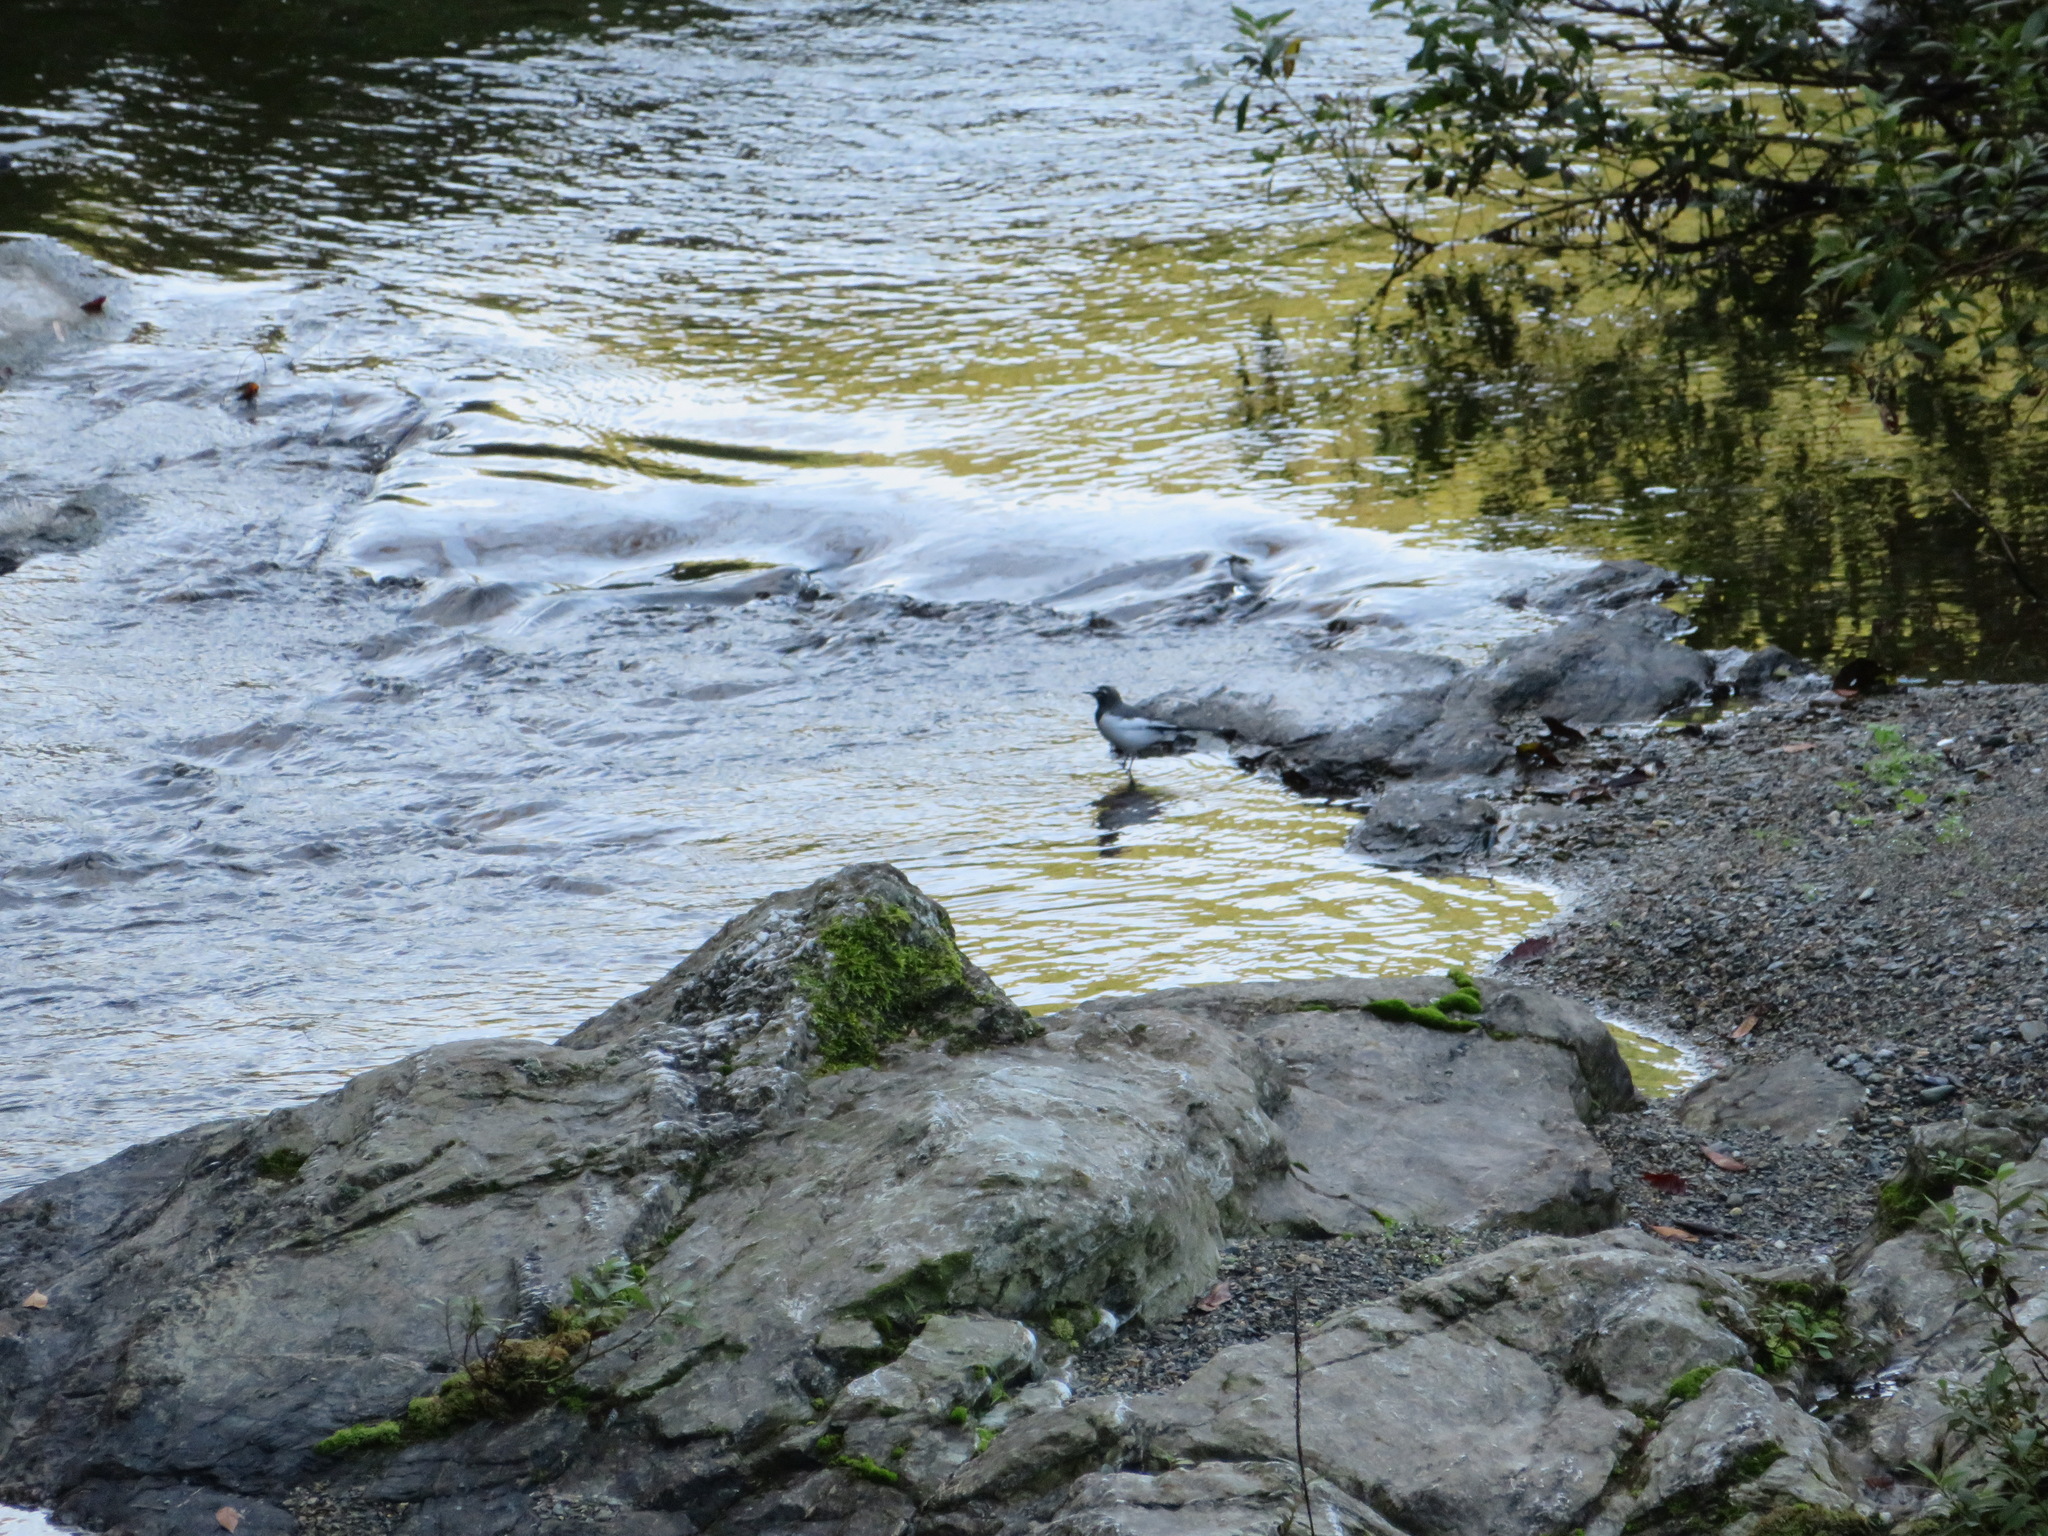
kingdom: Animalia
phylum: Chordata
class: Aves
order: Passeriformes
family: Motacillidae
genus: Motacilla
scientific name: Motacilla grandis
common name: Japanese wagtail
